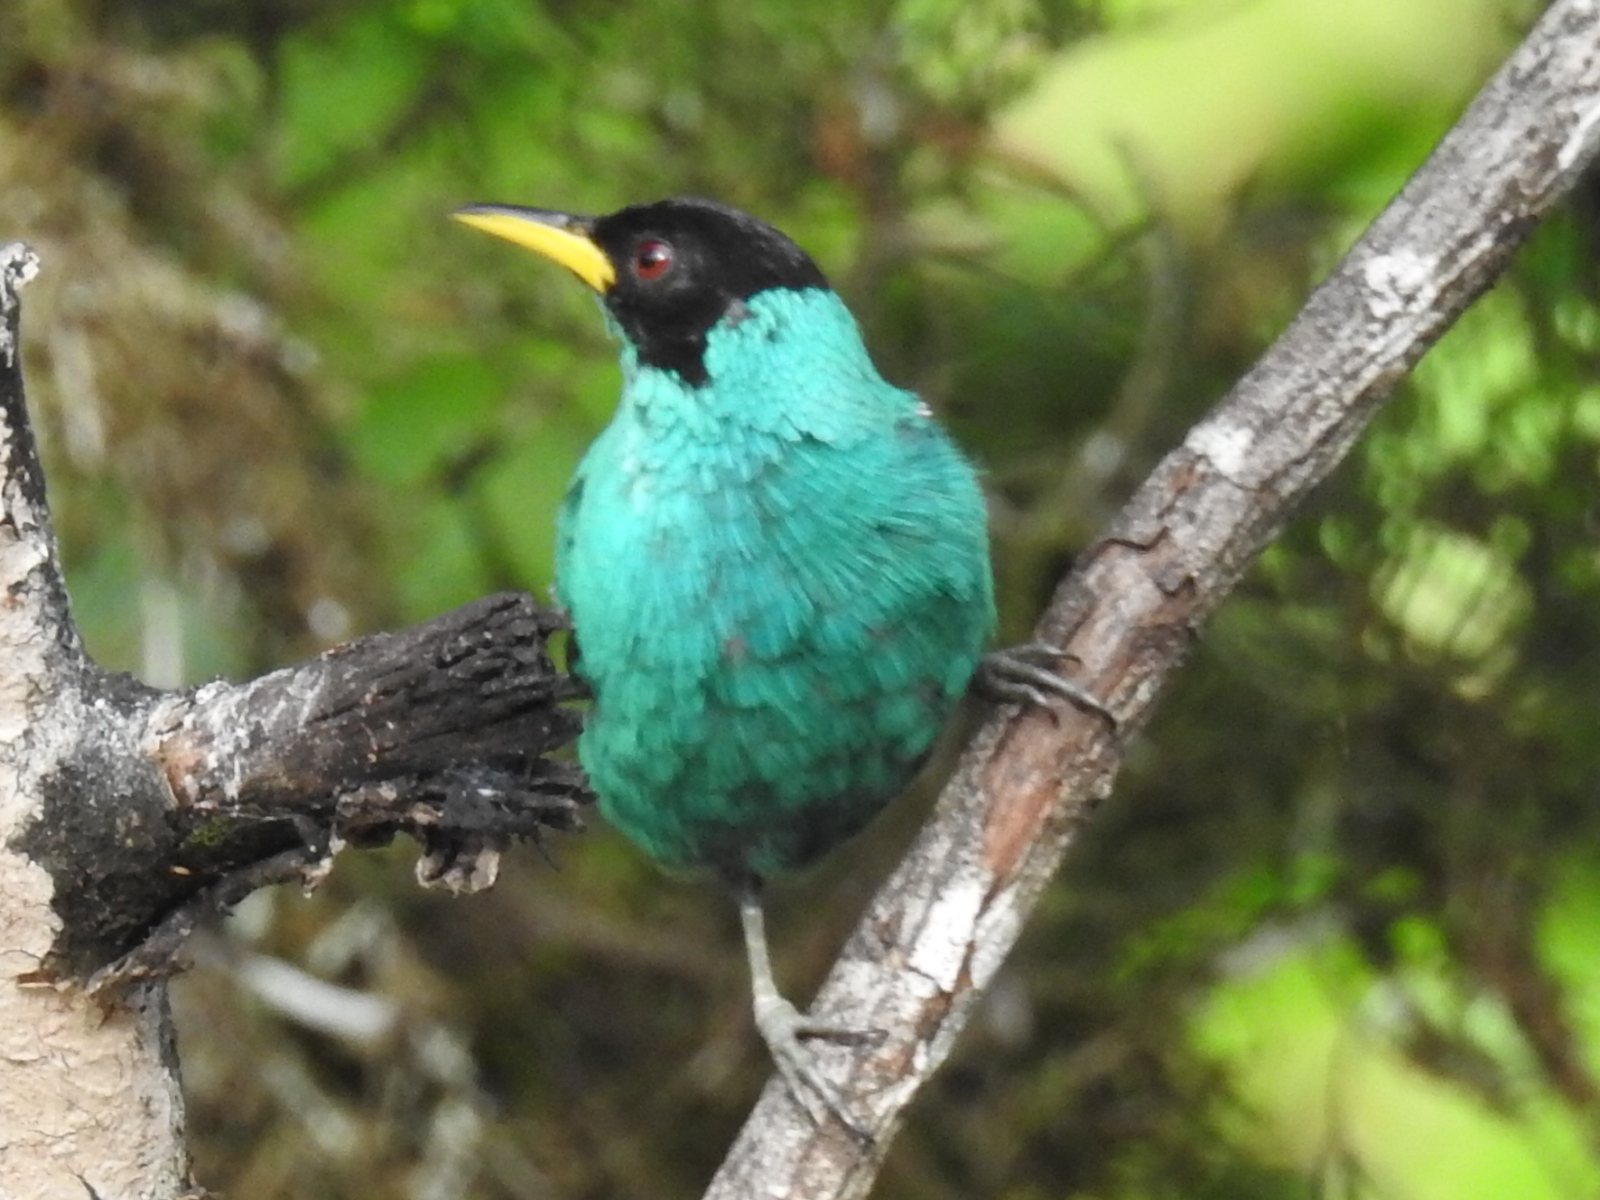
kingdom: Animalia
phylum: Chordata
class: Aves
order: Passeriformes
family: Thraupidae
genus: Chlorophanes
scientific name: Chlorophanes spiza
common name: Green honeycreeper
